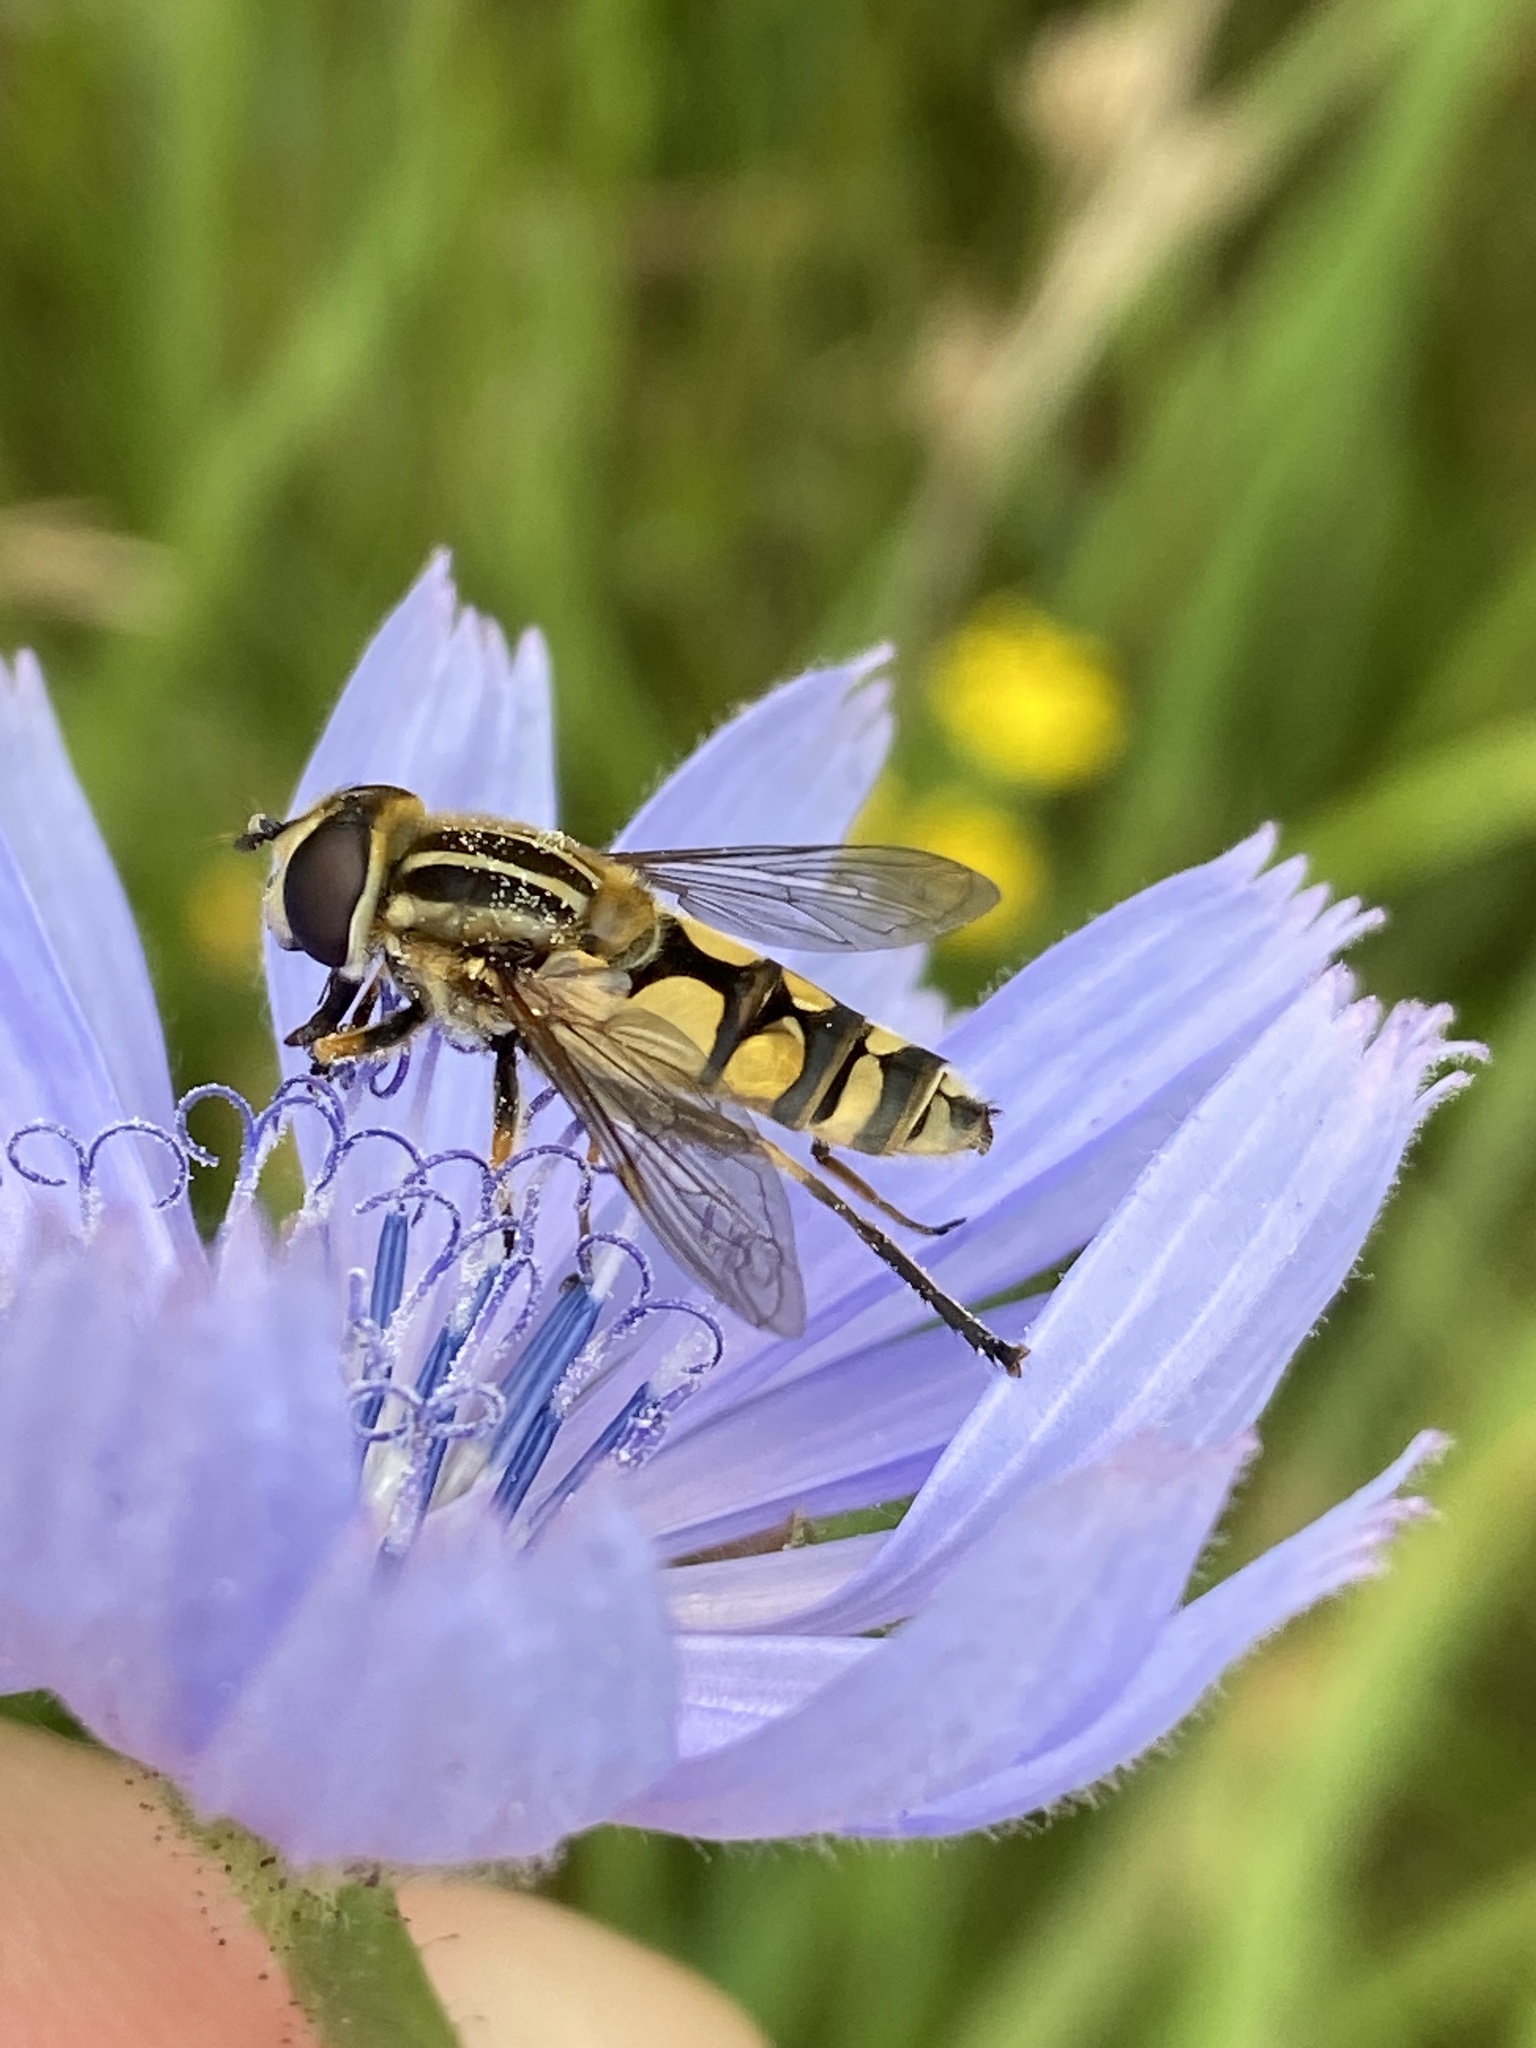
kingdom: Animalia
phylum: Arthropoda
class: Insecta
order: Diptera
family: Syrphidae
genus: Helophilus
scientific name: Helophilus pendulus
